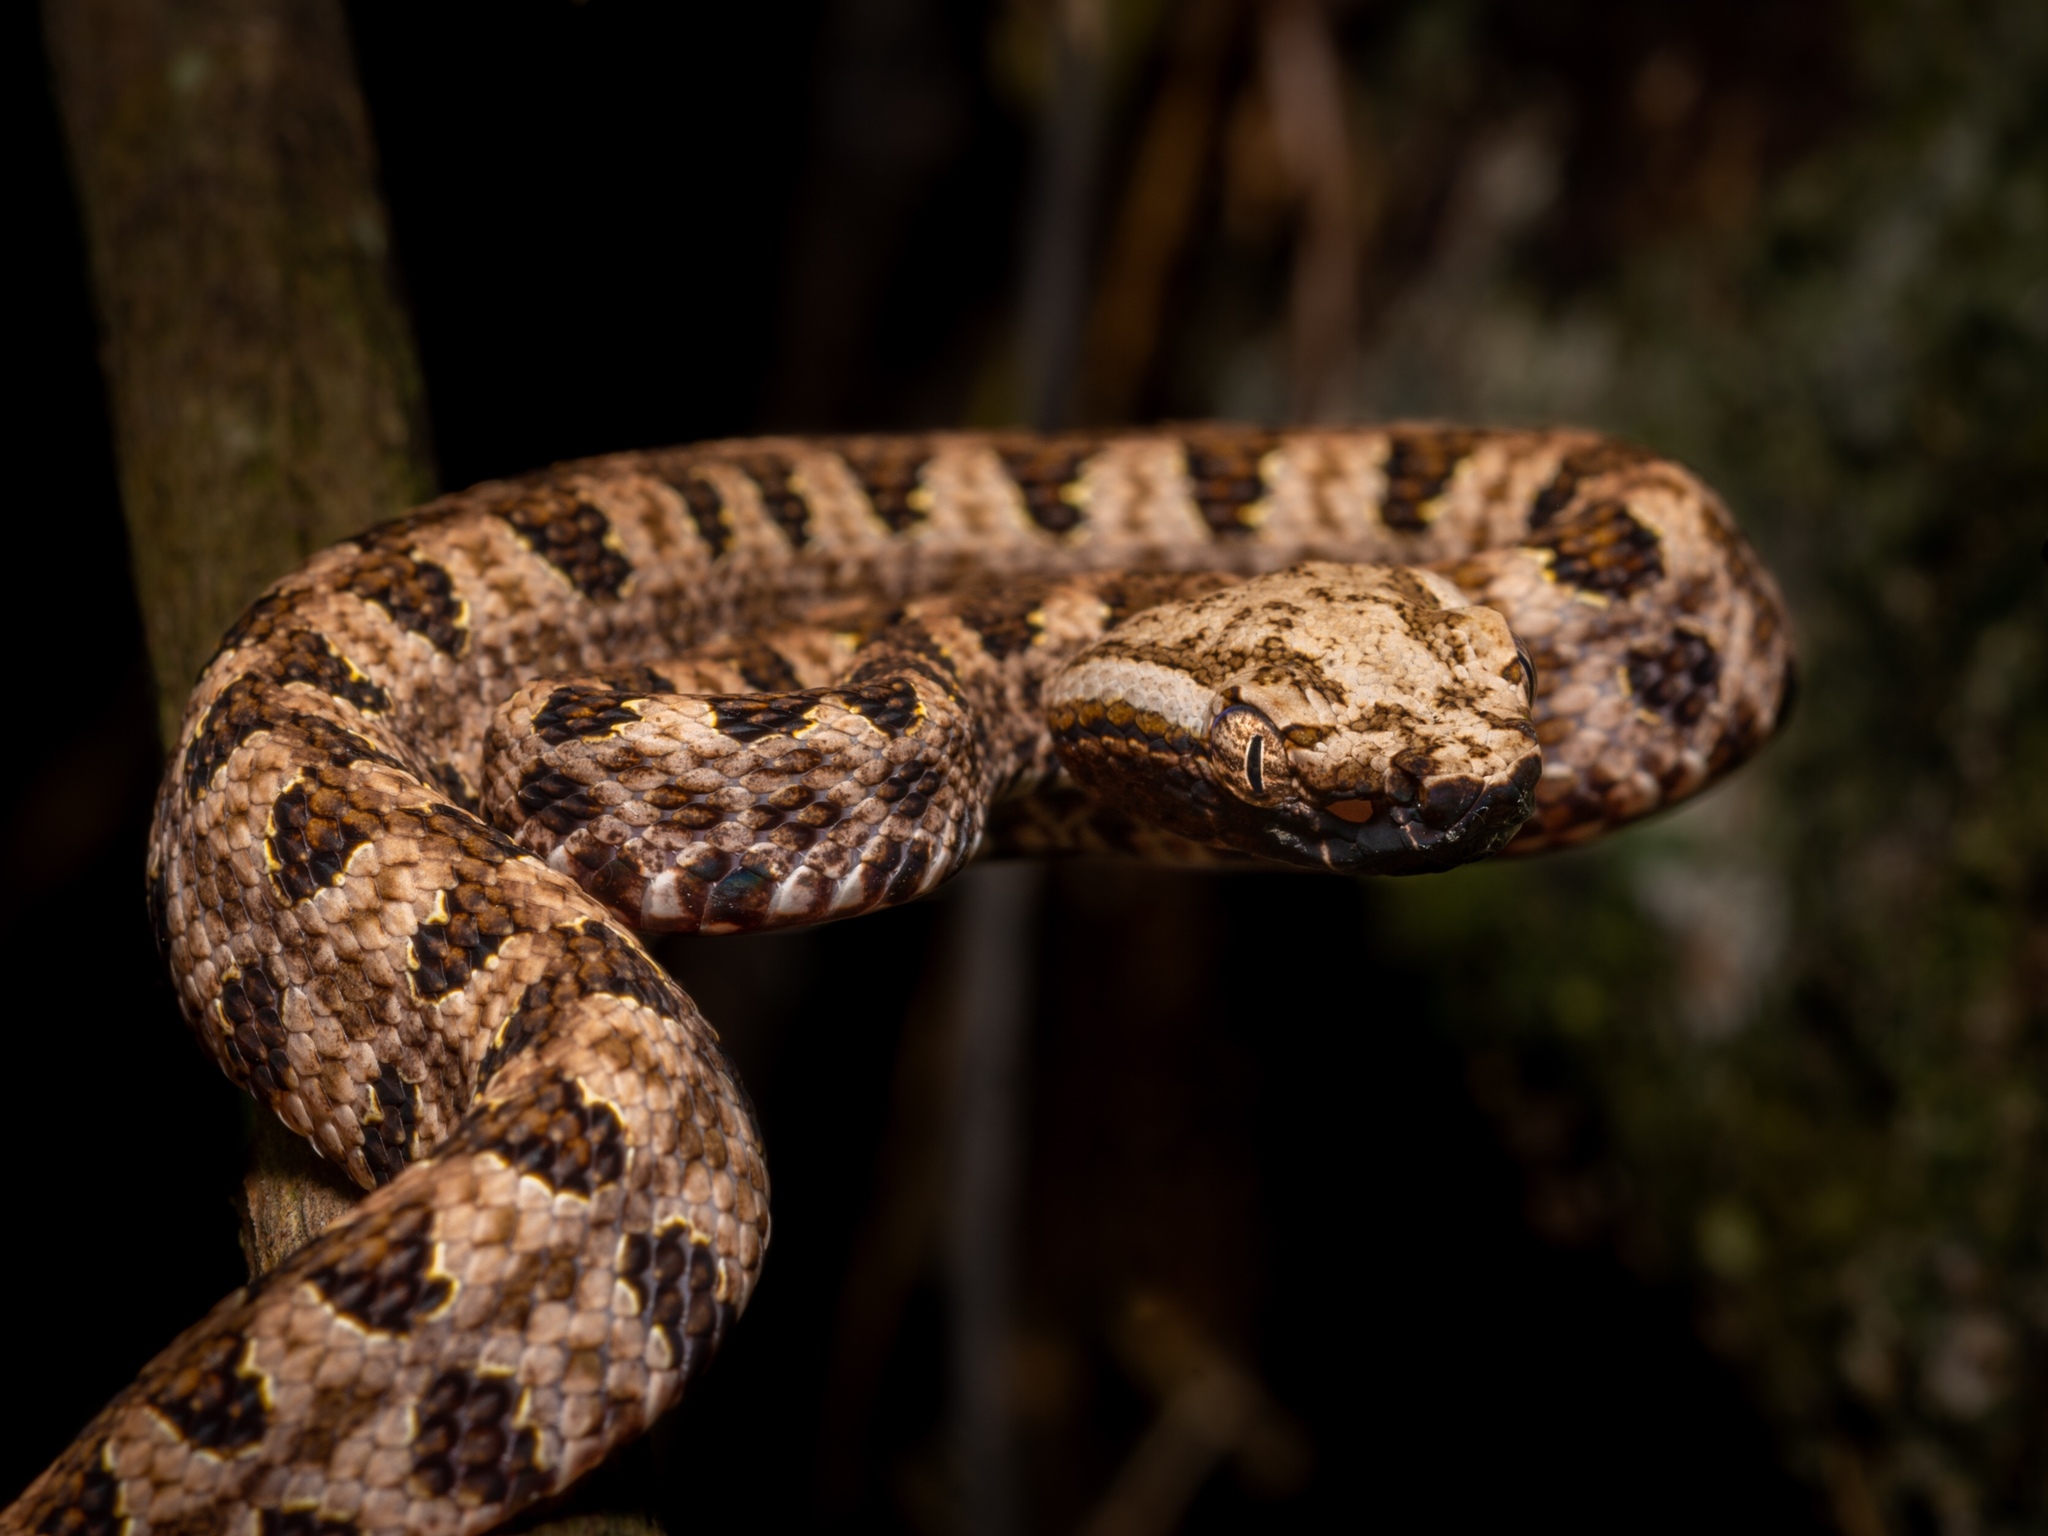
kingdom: Animalia
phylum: Chordata
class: Squamata
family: Viperidae
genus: Protobothrops
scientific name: Protobothrops mucrosquamatus
